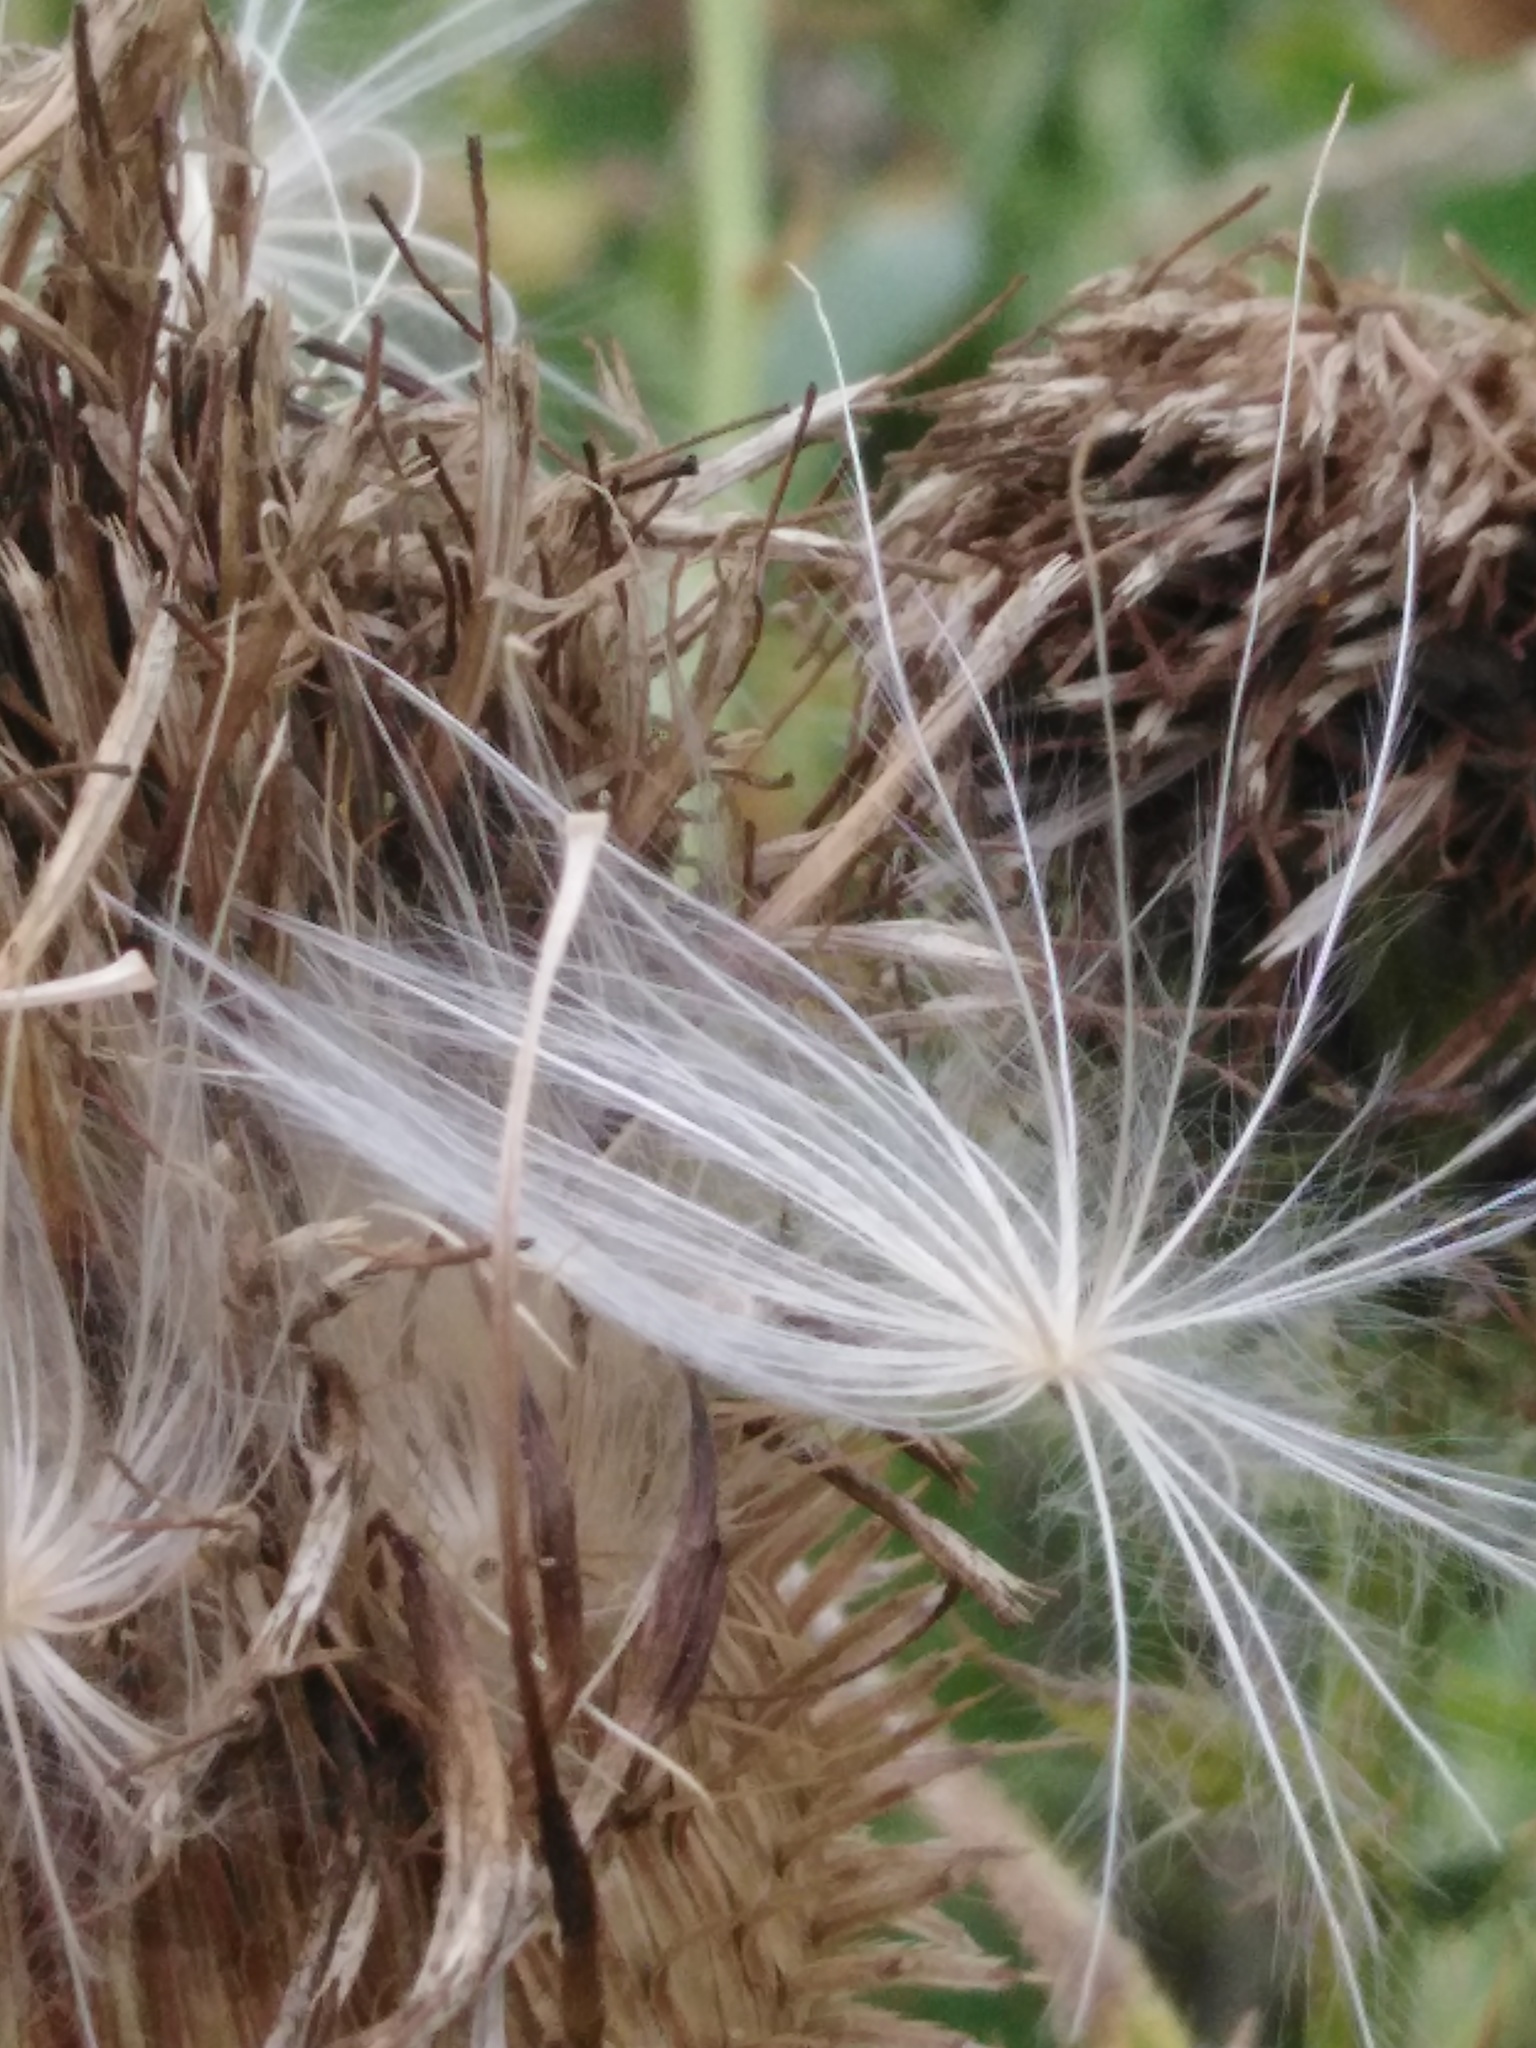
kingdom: Plantae
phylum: Tracheophyta
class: Magnoliopsida
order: Asterales
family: Asteraceae
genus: Cirsium
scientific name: Cirsium serrulatum
